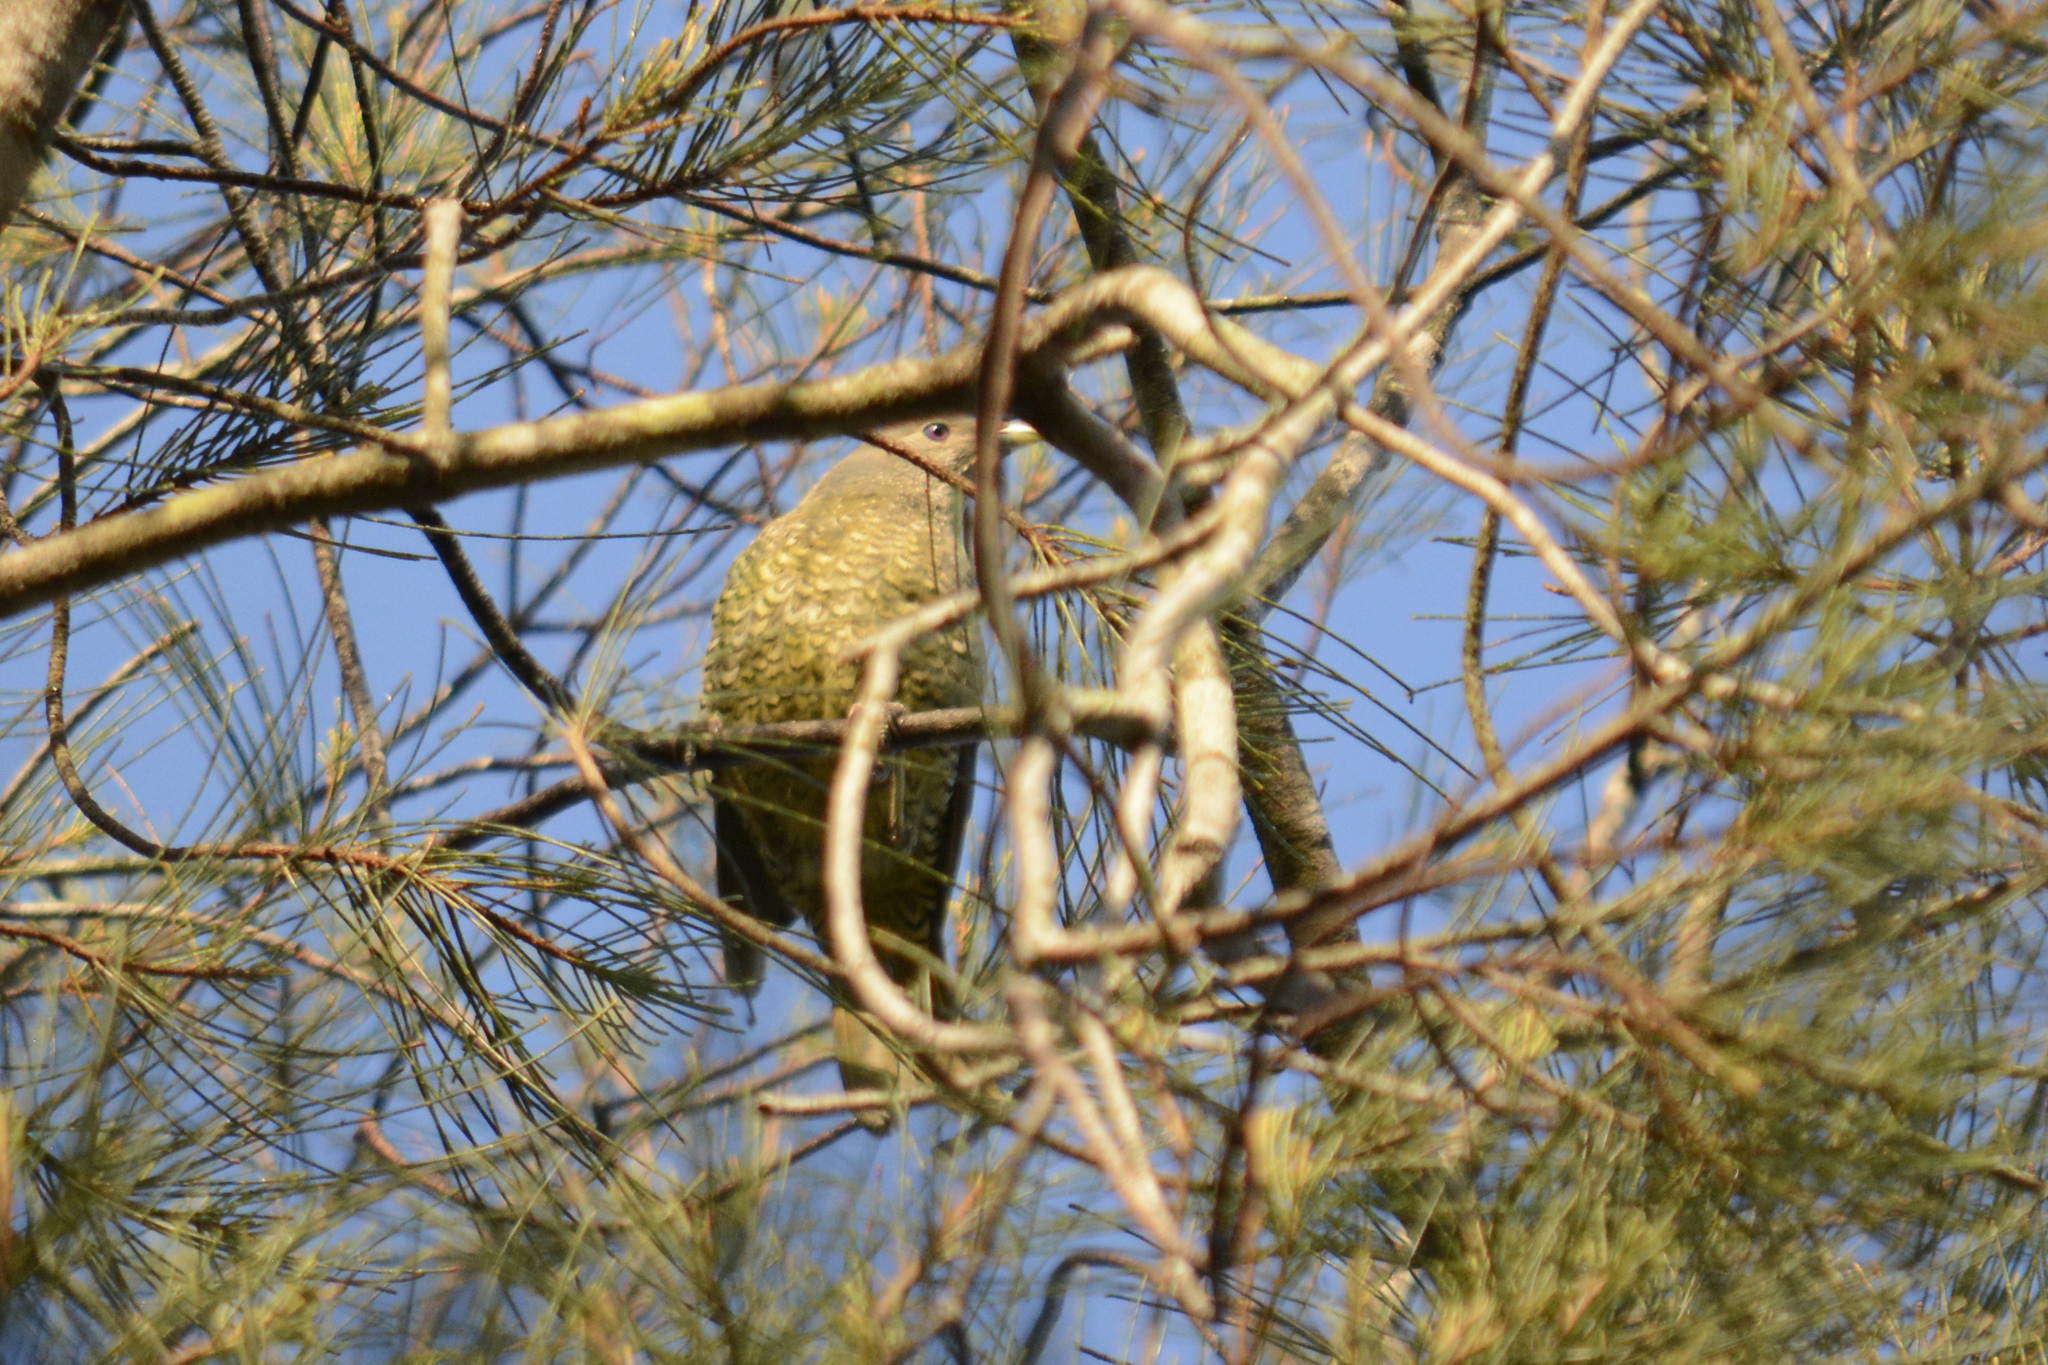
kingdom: Animalia
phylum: Chordata
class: Aves
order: Passeriformes
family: Ptilonorhynchidae
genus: Ptilonorhynchus
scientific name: Ptilonorhynchus violaceus
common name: Satin bowerbird
